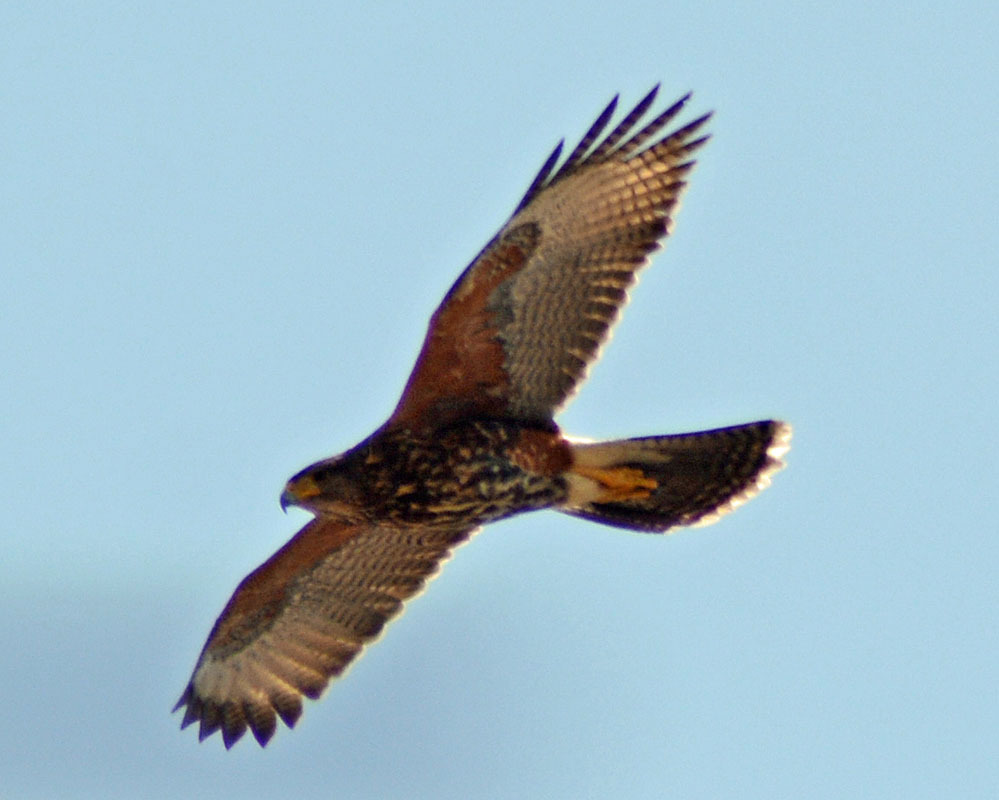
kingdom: Animalia
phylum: Chordata
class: Aves
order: Accipitriformes
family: Accipitridae
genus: Parabuteo
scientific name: Parabuteo unicinctus
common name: Harris's hawk
